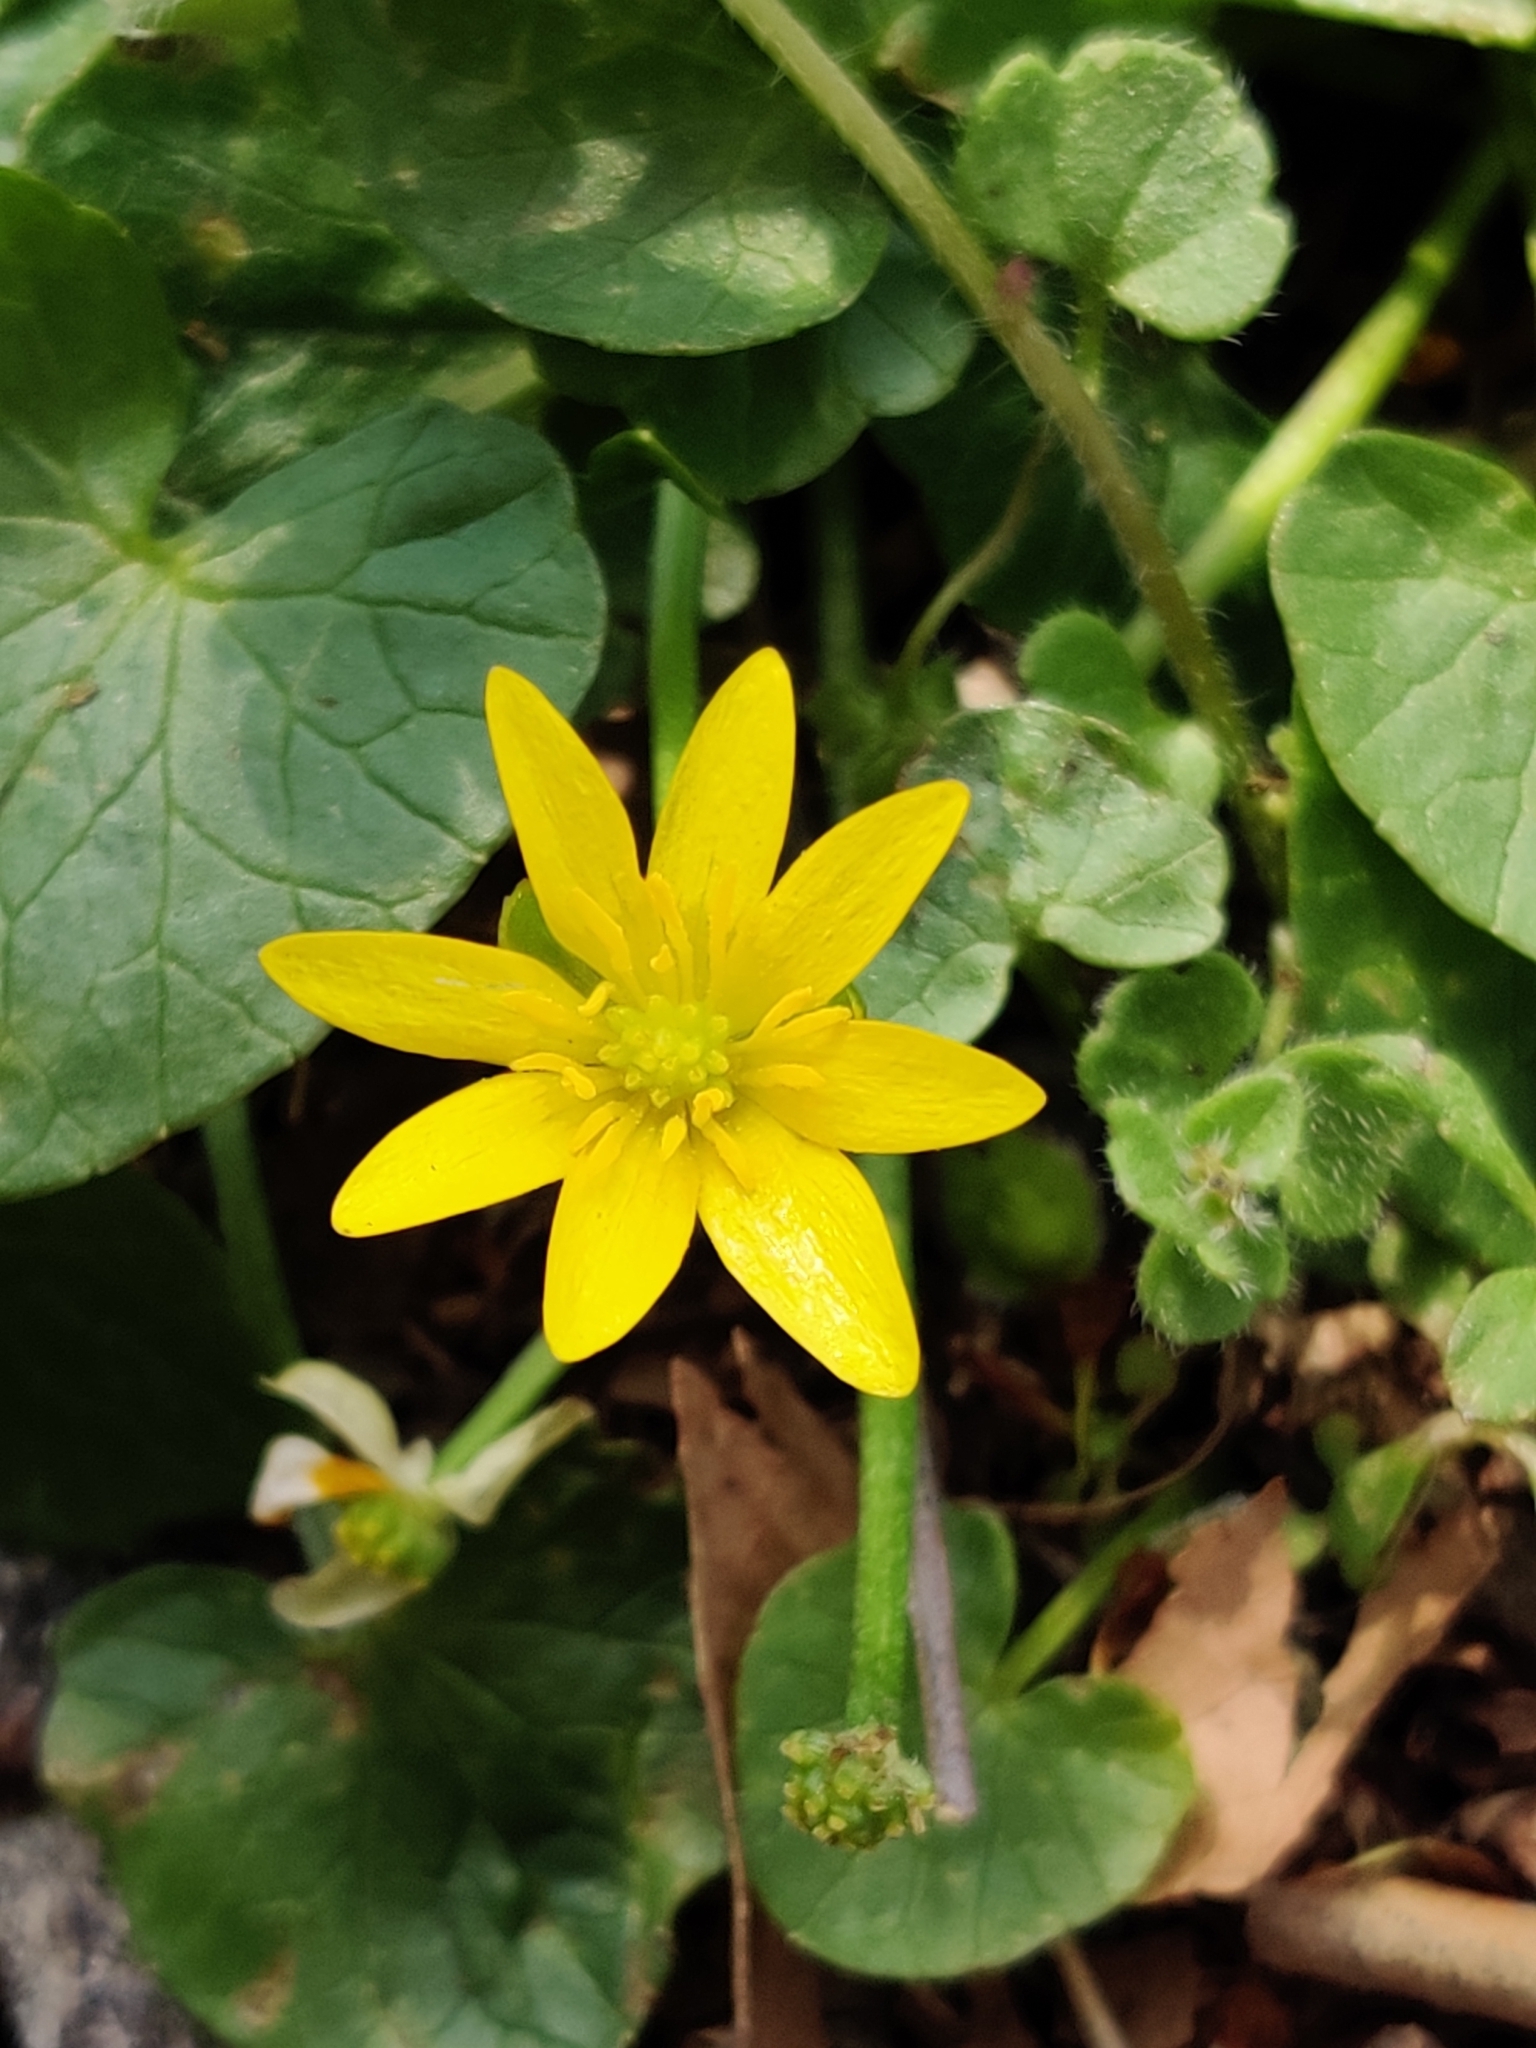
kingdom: Plantae
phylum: Tracheophyta
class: Magnoliopsida
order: Ranunculales
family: Ranunculaceae
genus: Ficaria
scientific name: Ficaria verna
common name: Lesser celandine
